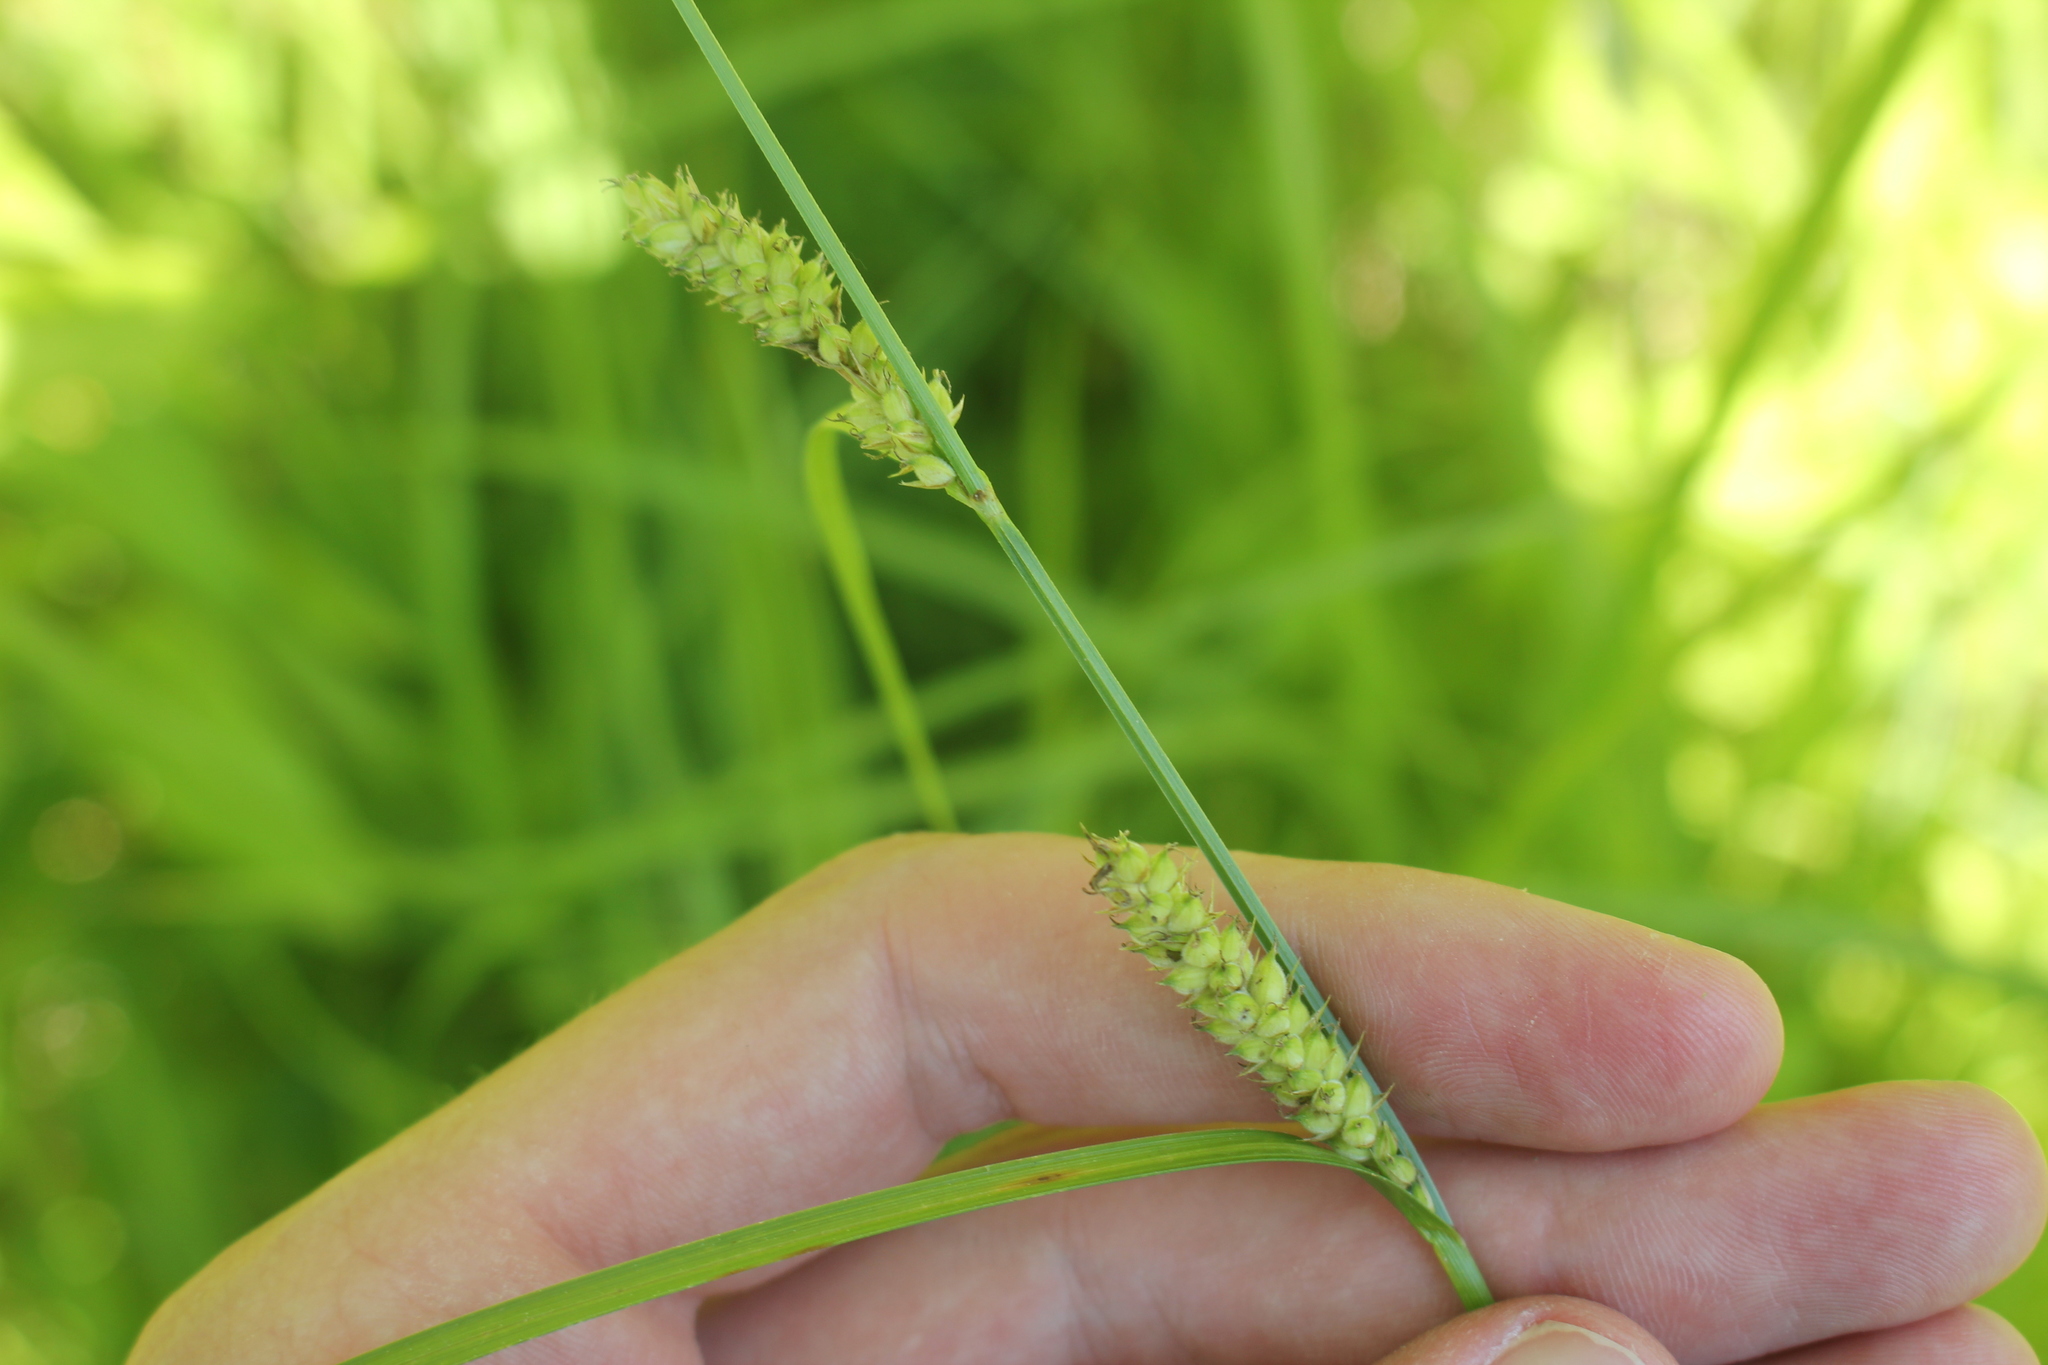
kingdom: Plantae
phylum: Tracheophyta
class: Liliopsida
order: Poales
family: Cyperaceae
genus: Carex
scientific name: Carex pellita
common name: Woolly sedge
